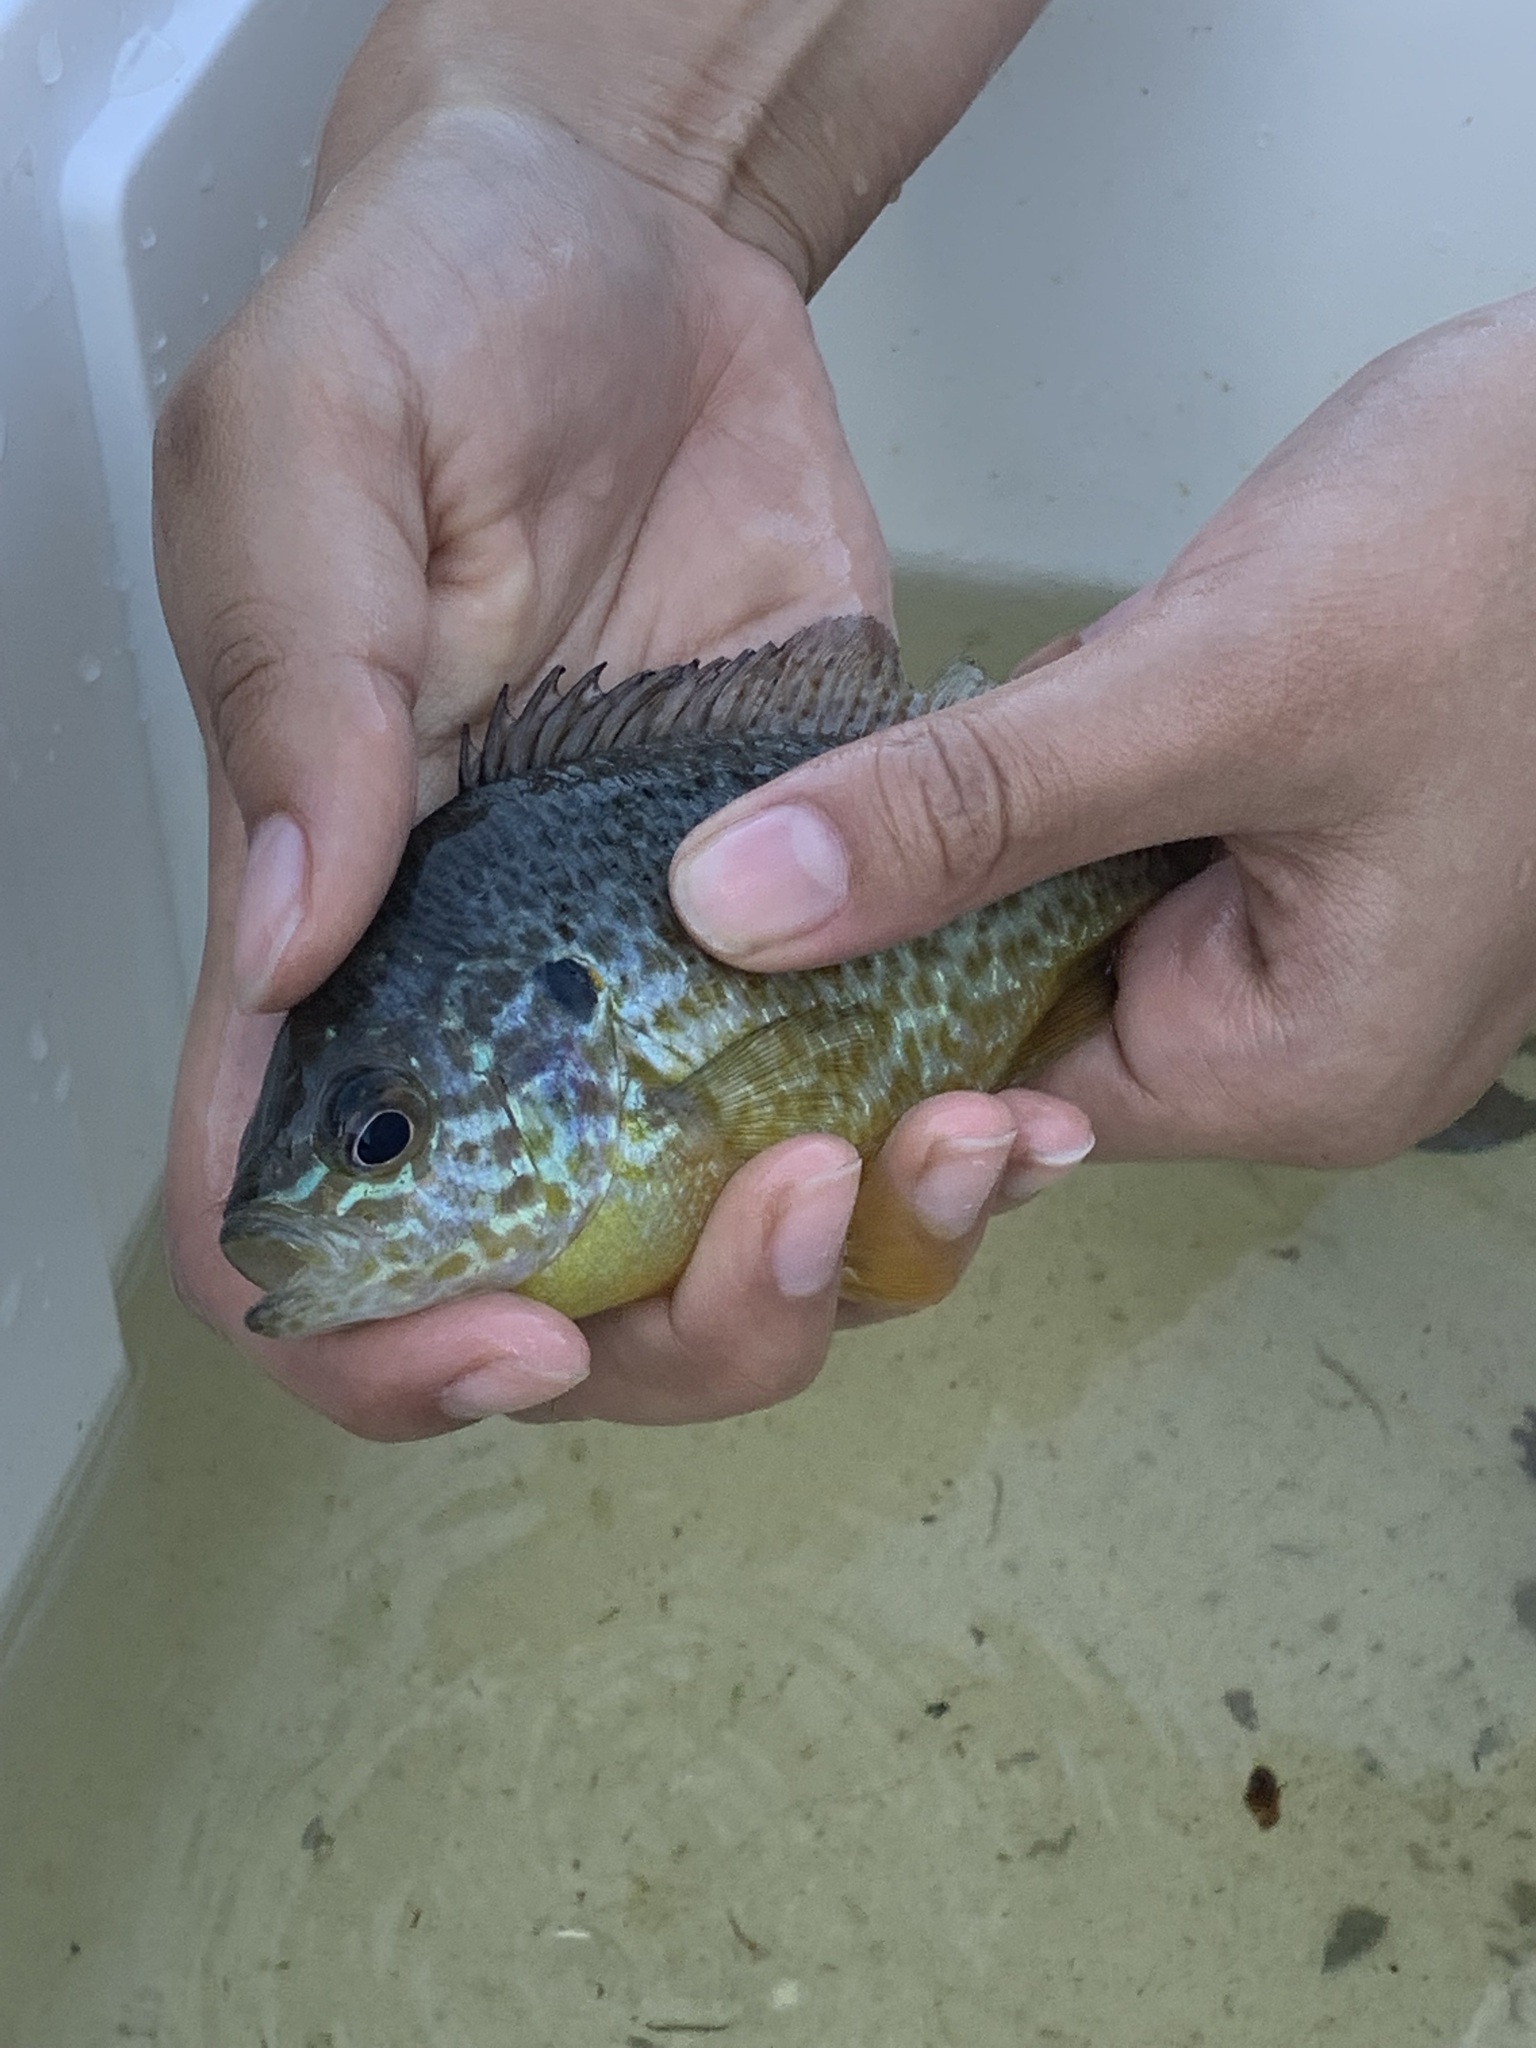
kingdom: Animalia
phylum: Chordata
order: Perciformes
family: Centrarchidae
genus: Lepomis
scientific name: Lepomis gibbosus
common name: Pumpkinseed
